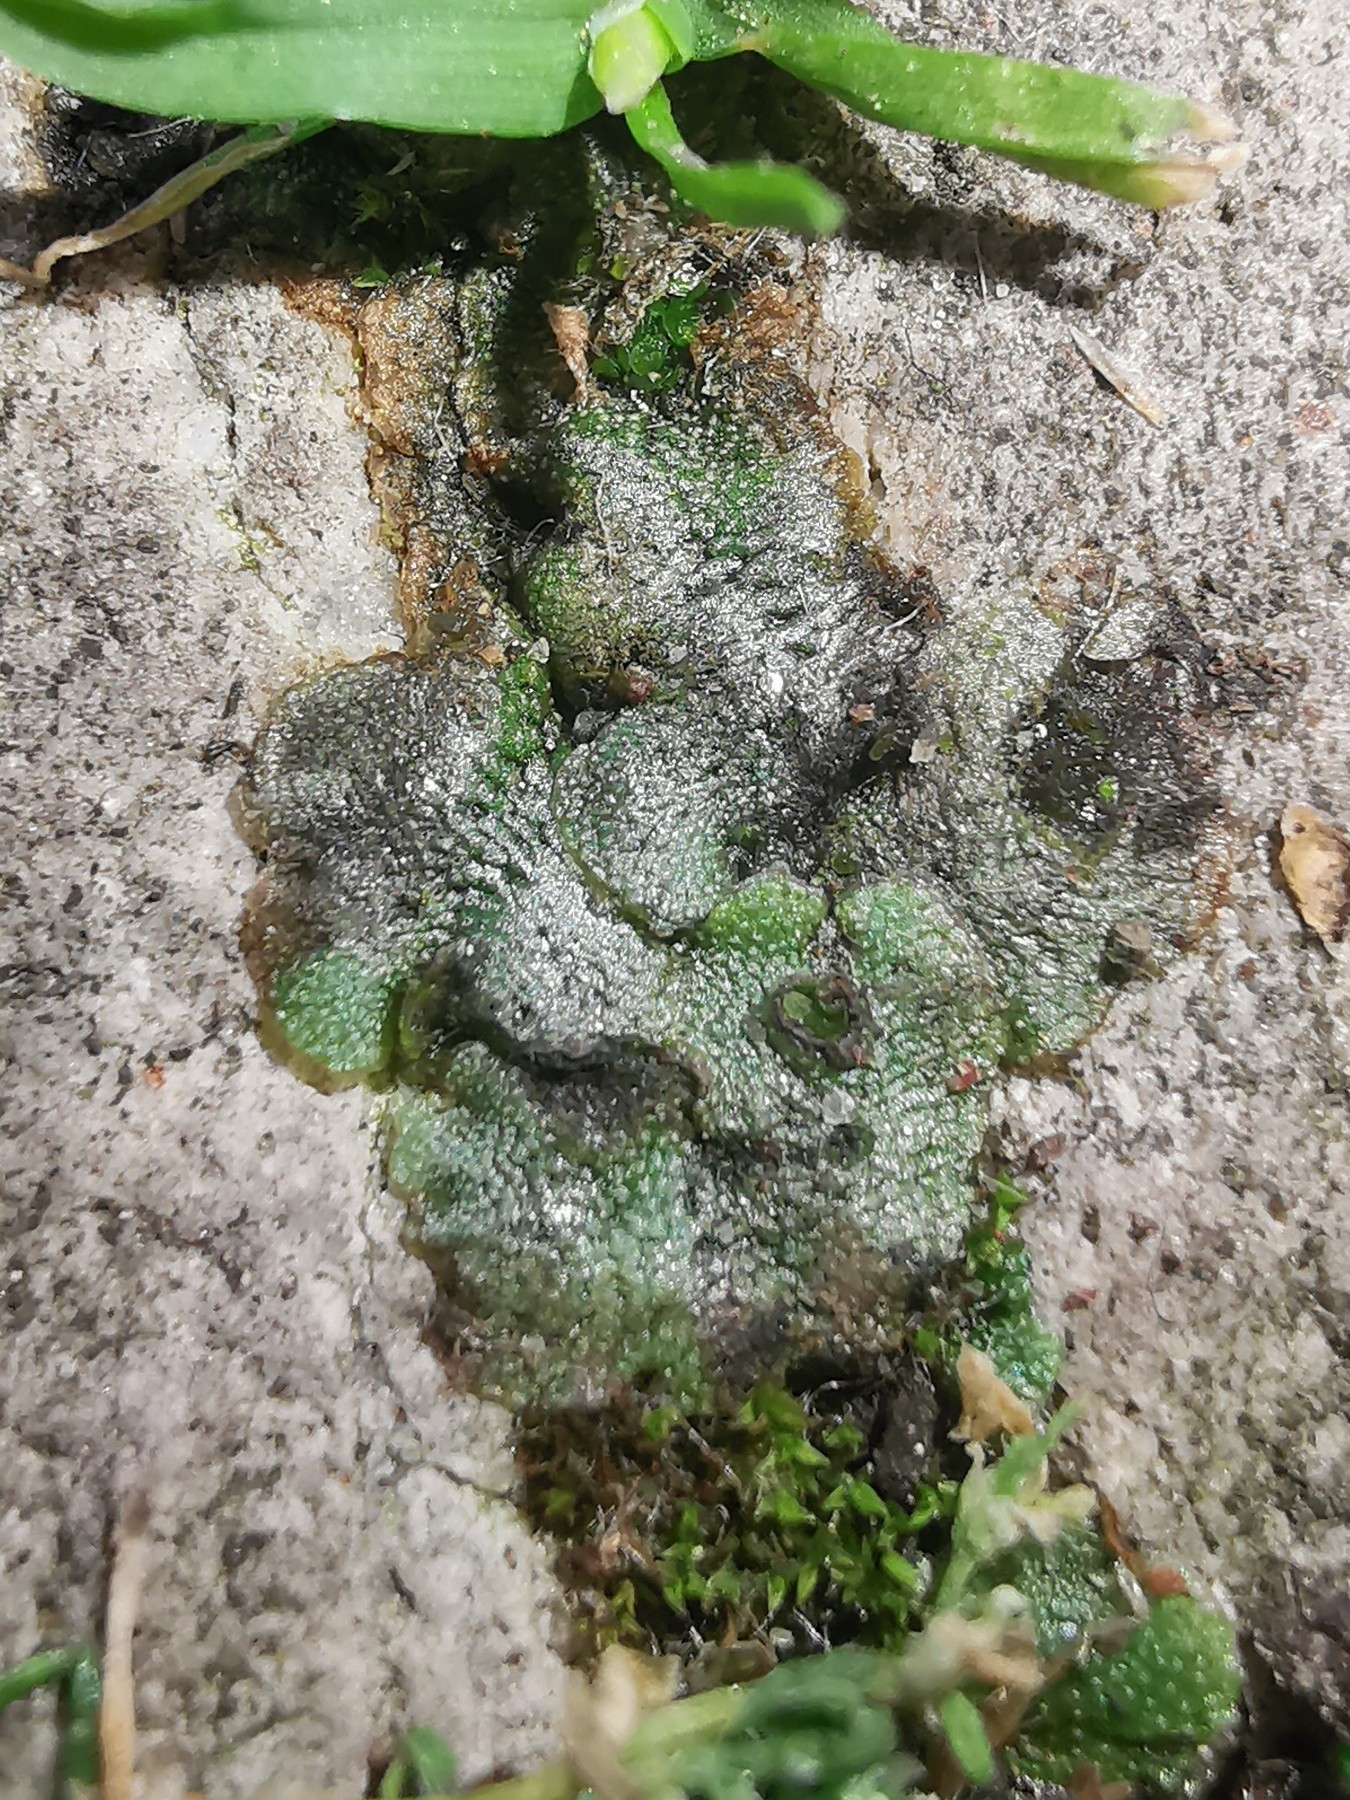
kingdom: Plantae
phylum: Marchantiophyta
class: Marchantiopsida
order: Marchantiales
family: Marchantiaceae
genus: Marchantia
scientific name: Marchantia polymorpha
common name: Common liverwort
